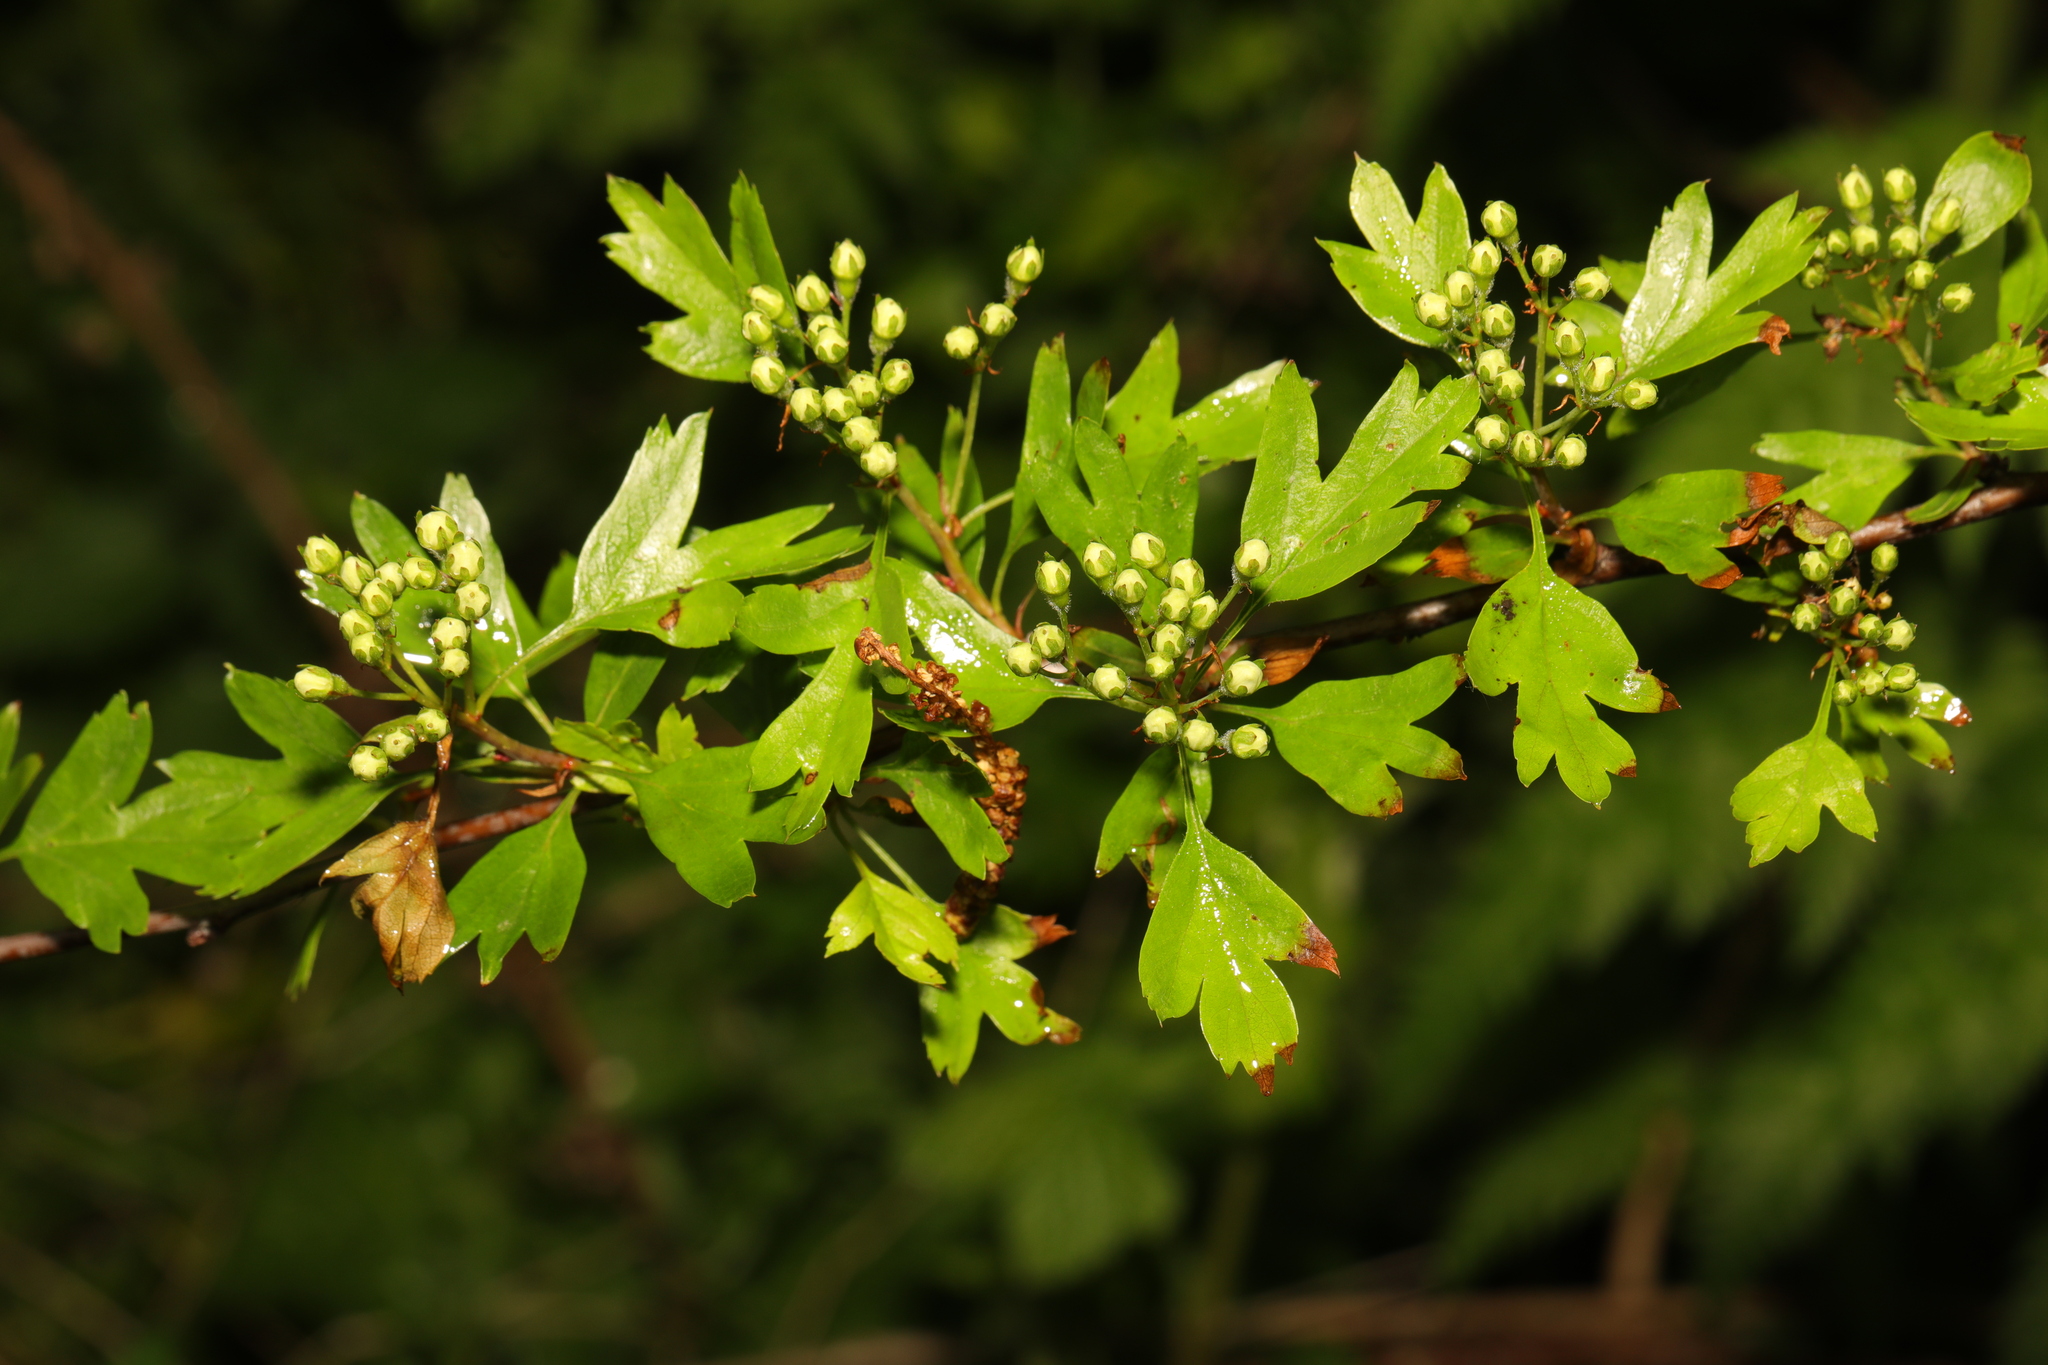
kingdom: Plantae
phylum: Tracheophyta
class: Magnoliopsida
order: Rosales
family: Rosaceae
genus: Crataegus
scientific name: Crataegus monogyna
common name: Hawthorn
